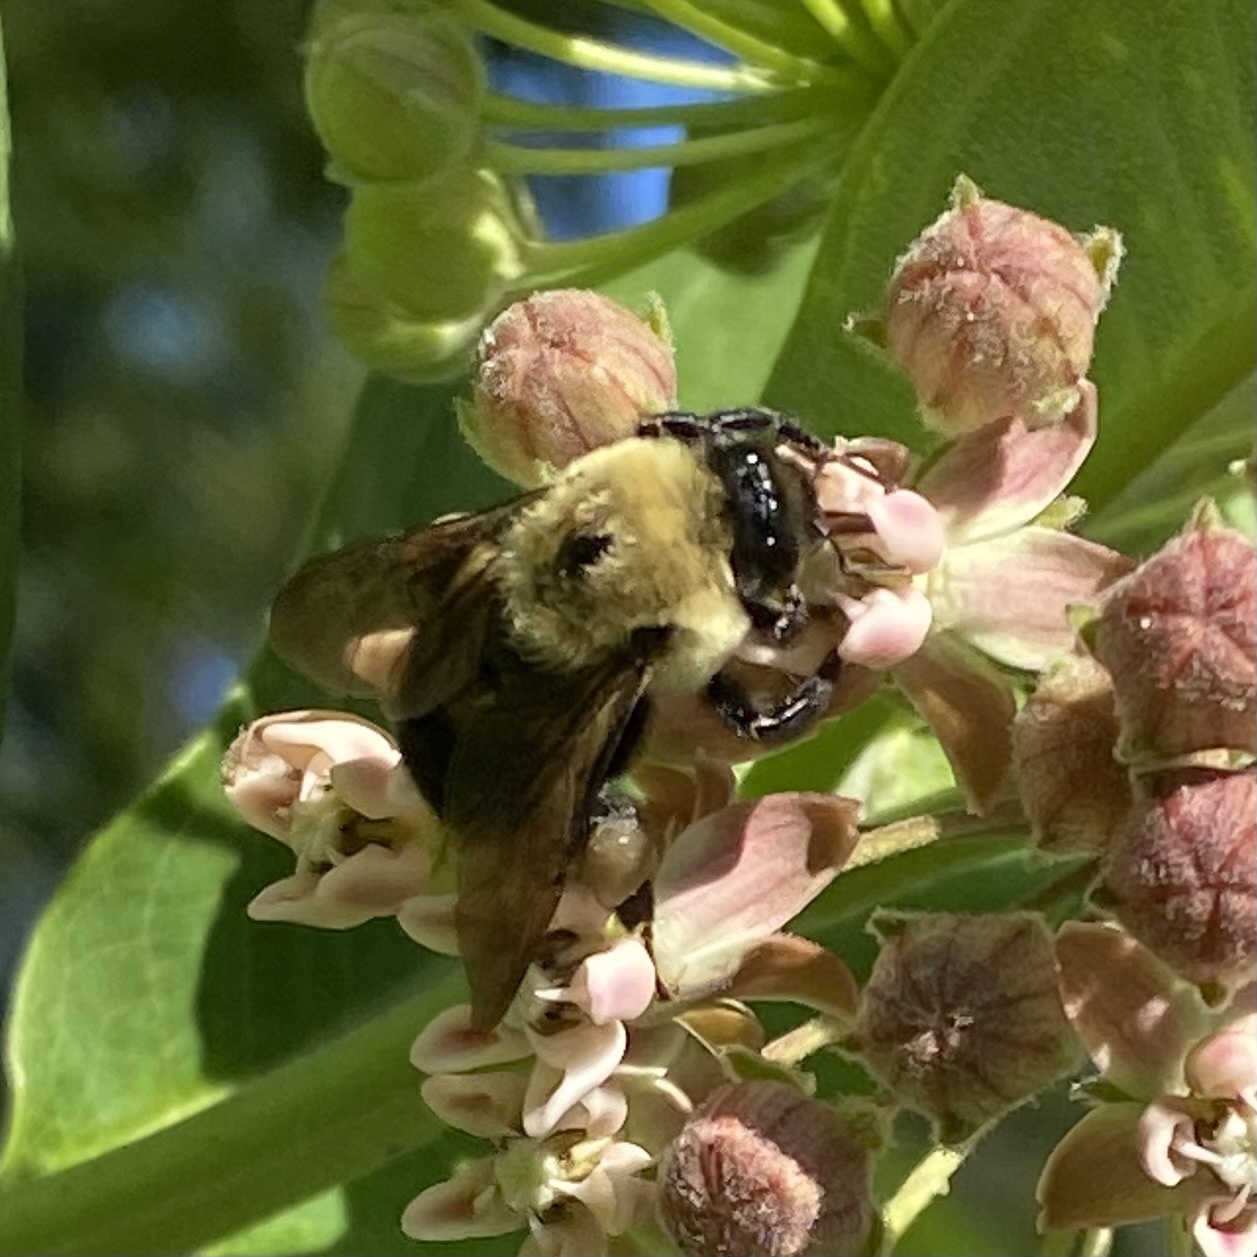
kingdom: Animalia
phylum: Arthropoda
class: Insecta
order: Hymenoptera
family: Apidae
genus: Bombus
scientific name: Bombus griseocollis
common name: Brown-belted bumble bee
